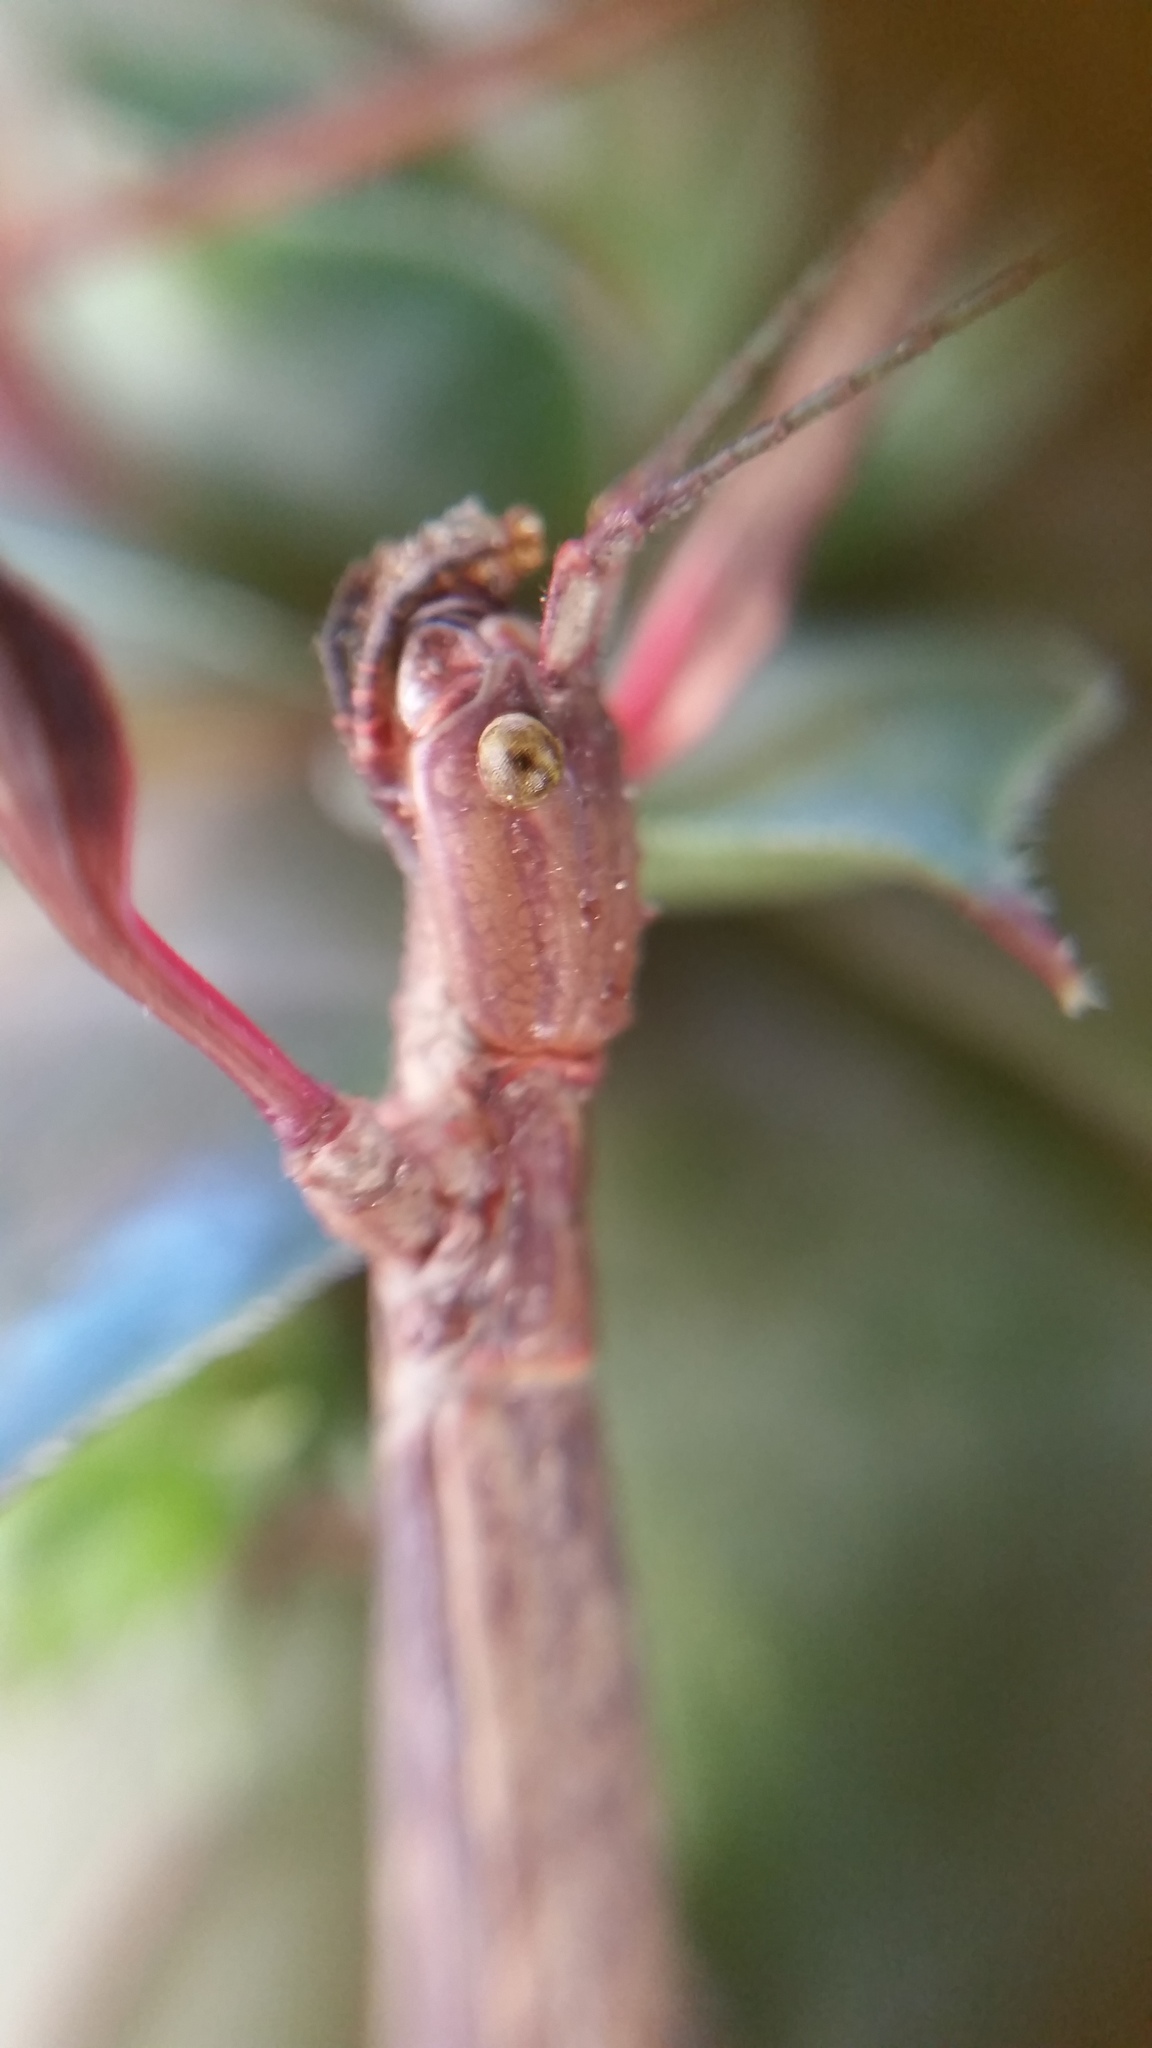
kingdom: Animalia
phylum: Arthropoda
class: Insecta
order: Phasmida
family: Phasmatidae
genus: Clitarchus
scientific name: Clitarchus hookeri
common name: Smooth stick insect
